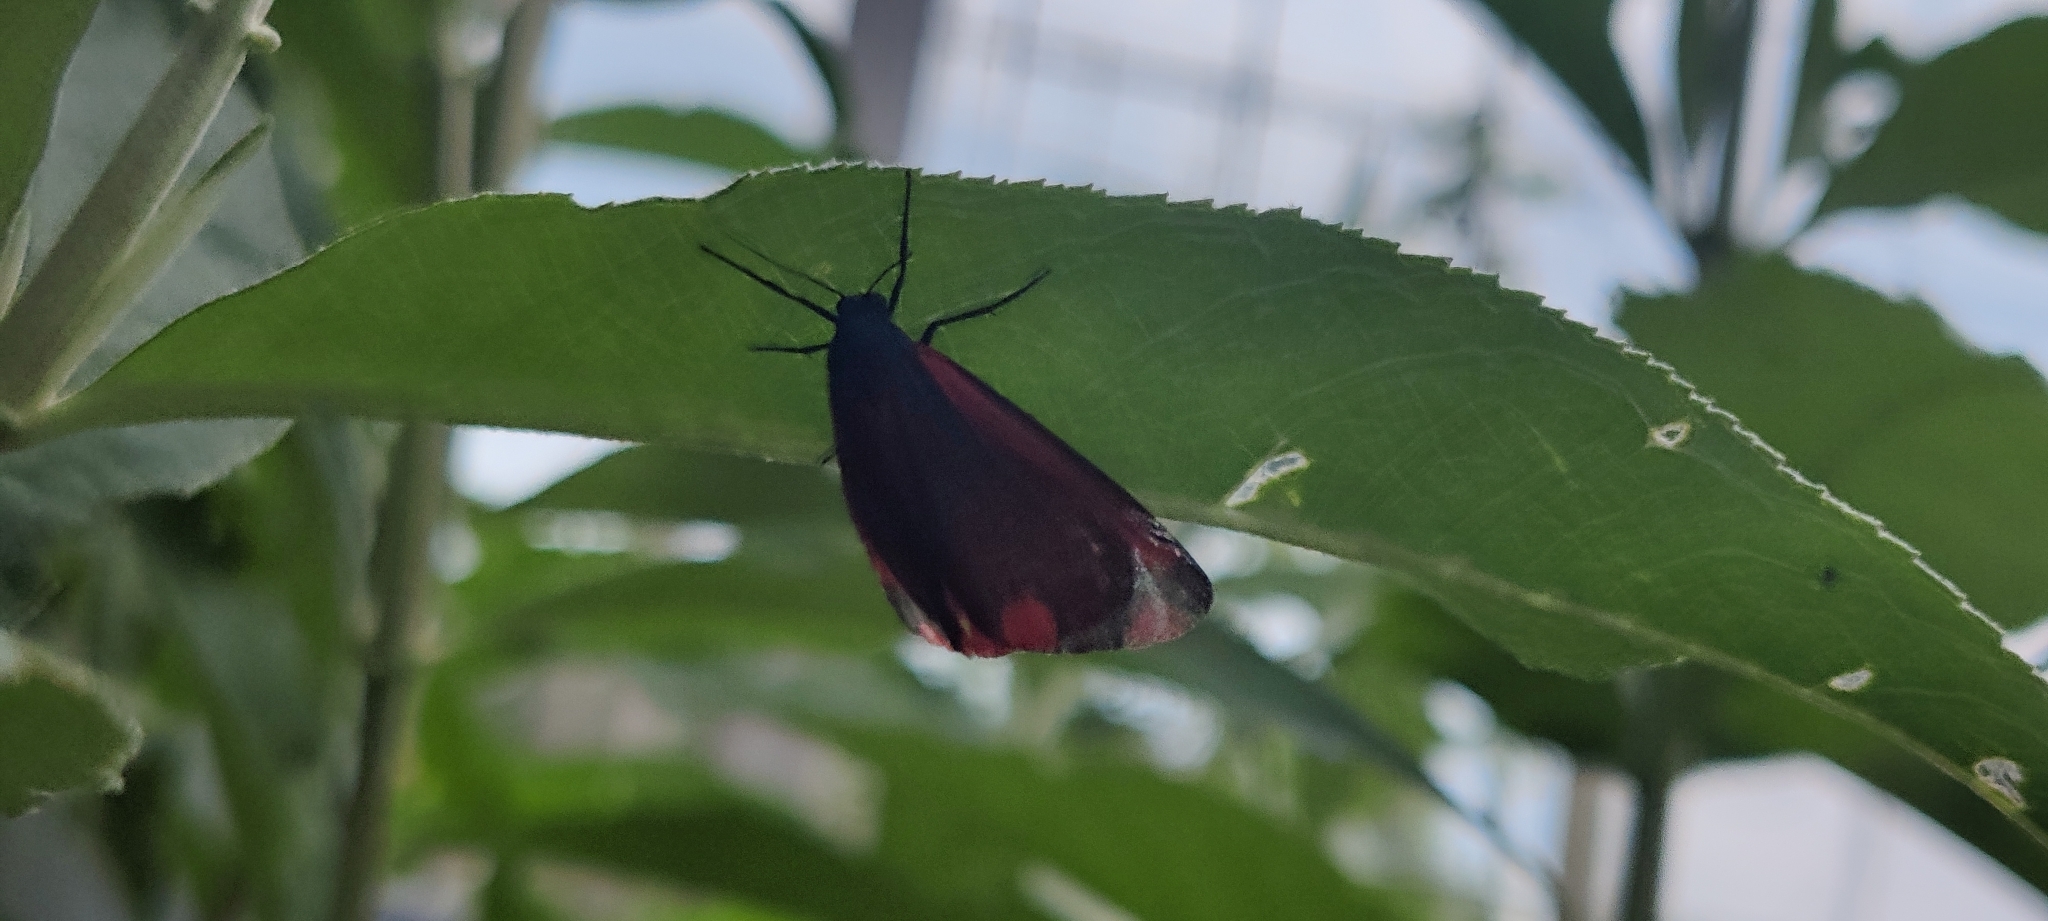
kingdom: Animalia
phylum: Arthropoda
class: Insecta
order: Lepidoptera
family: Erebidae
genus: Tyria
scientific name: Tyria jacobaeae
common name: Cinnabar
